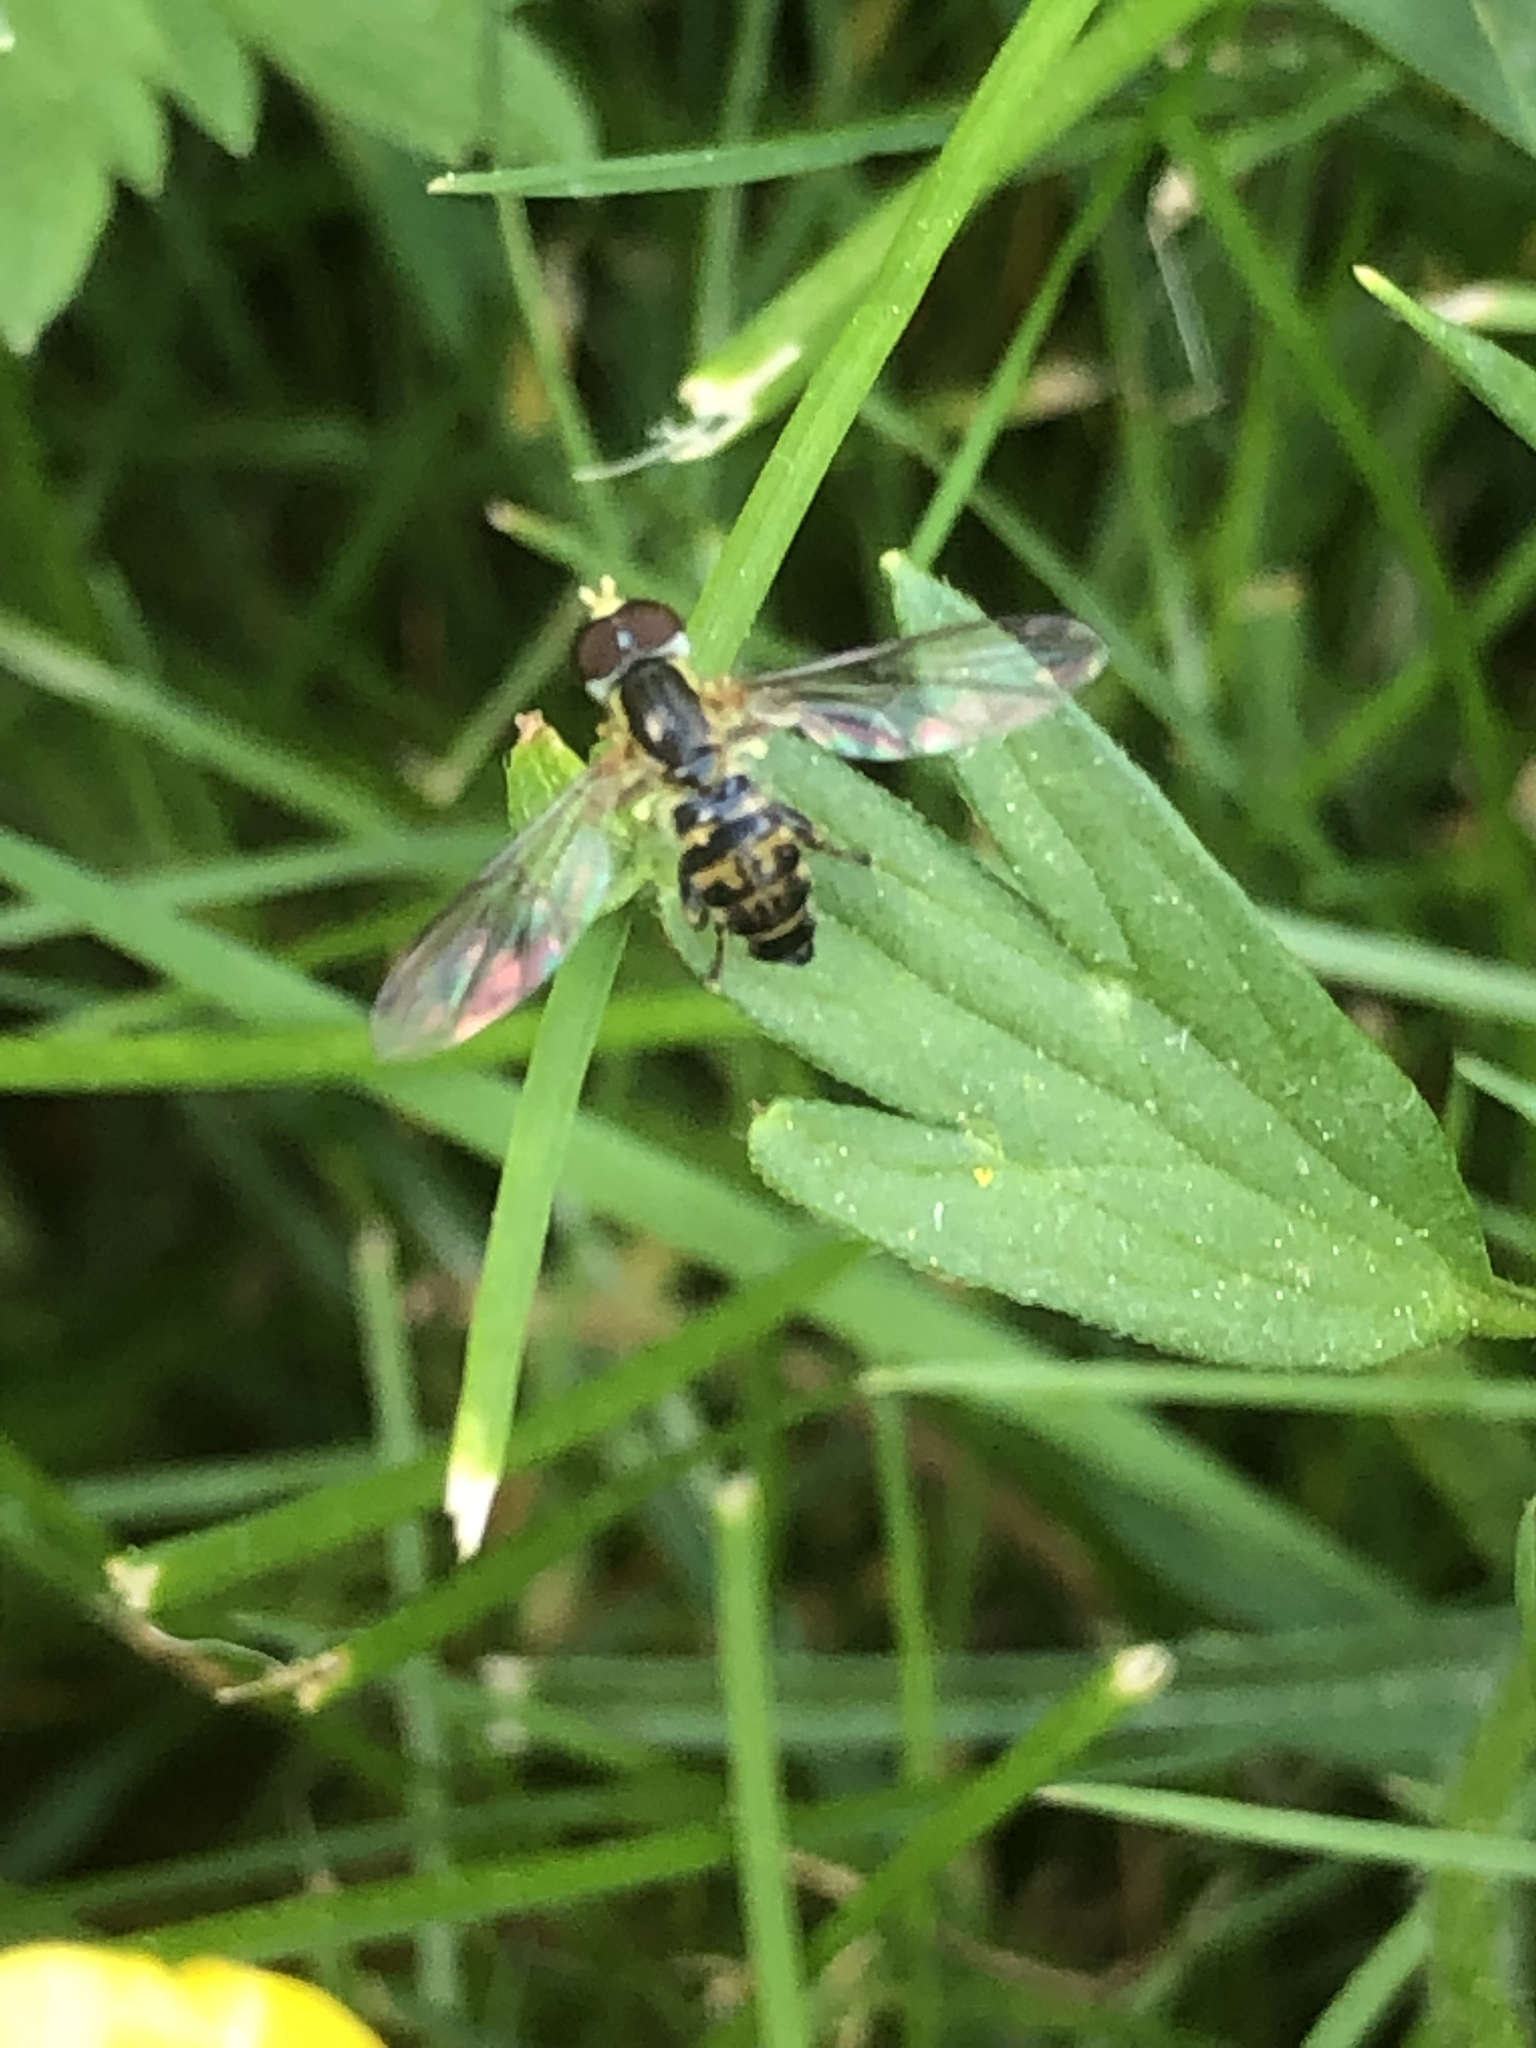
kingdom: Animalia
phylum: Arthropoda
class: Insecta
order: Diptera
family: Syrphidae
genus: Toxomerus
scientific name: Toxomerus geminatus
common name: Eastern calligrapher
